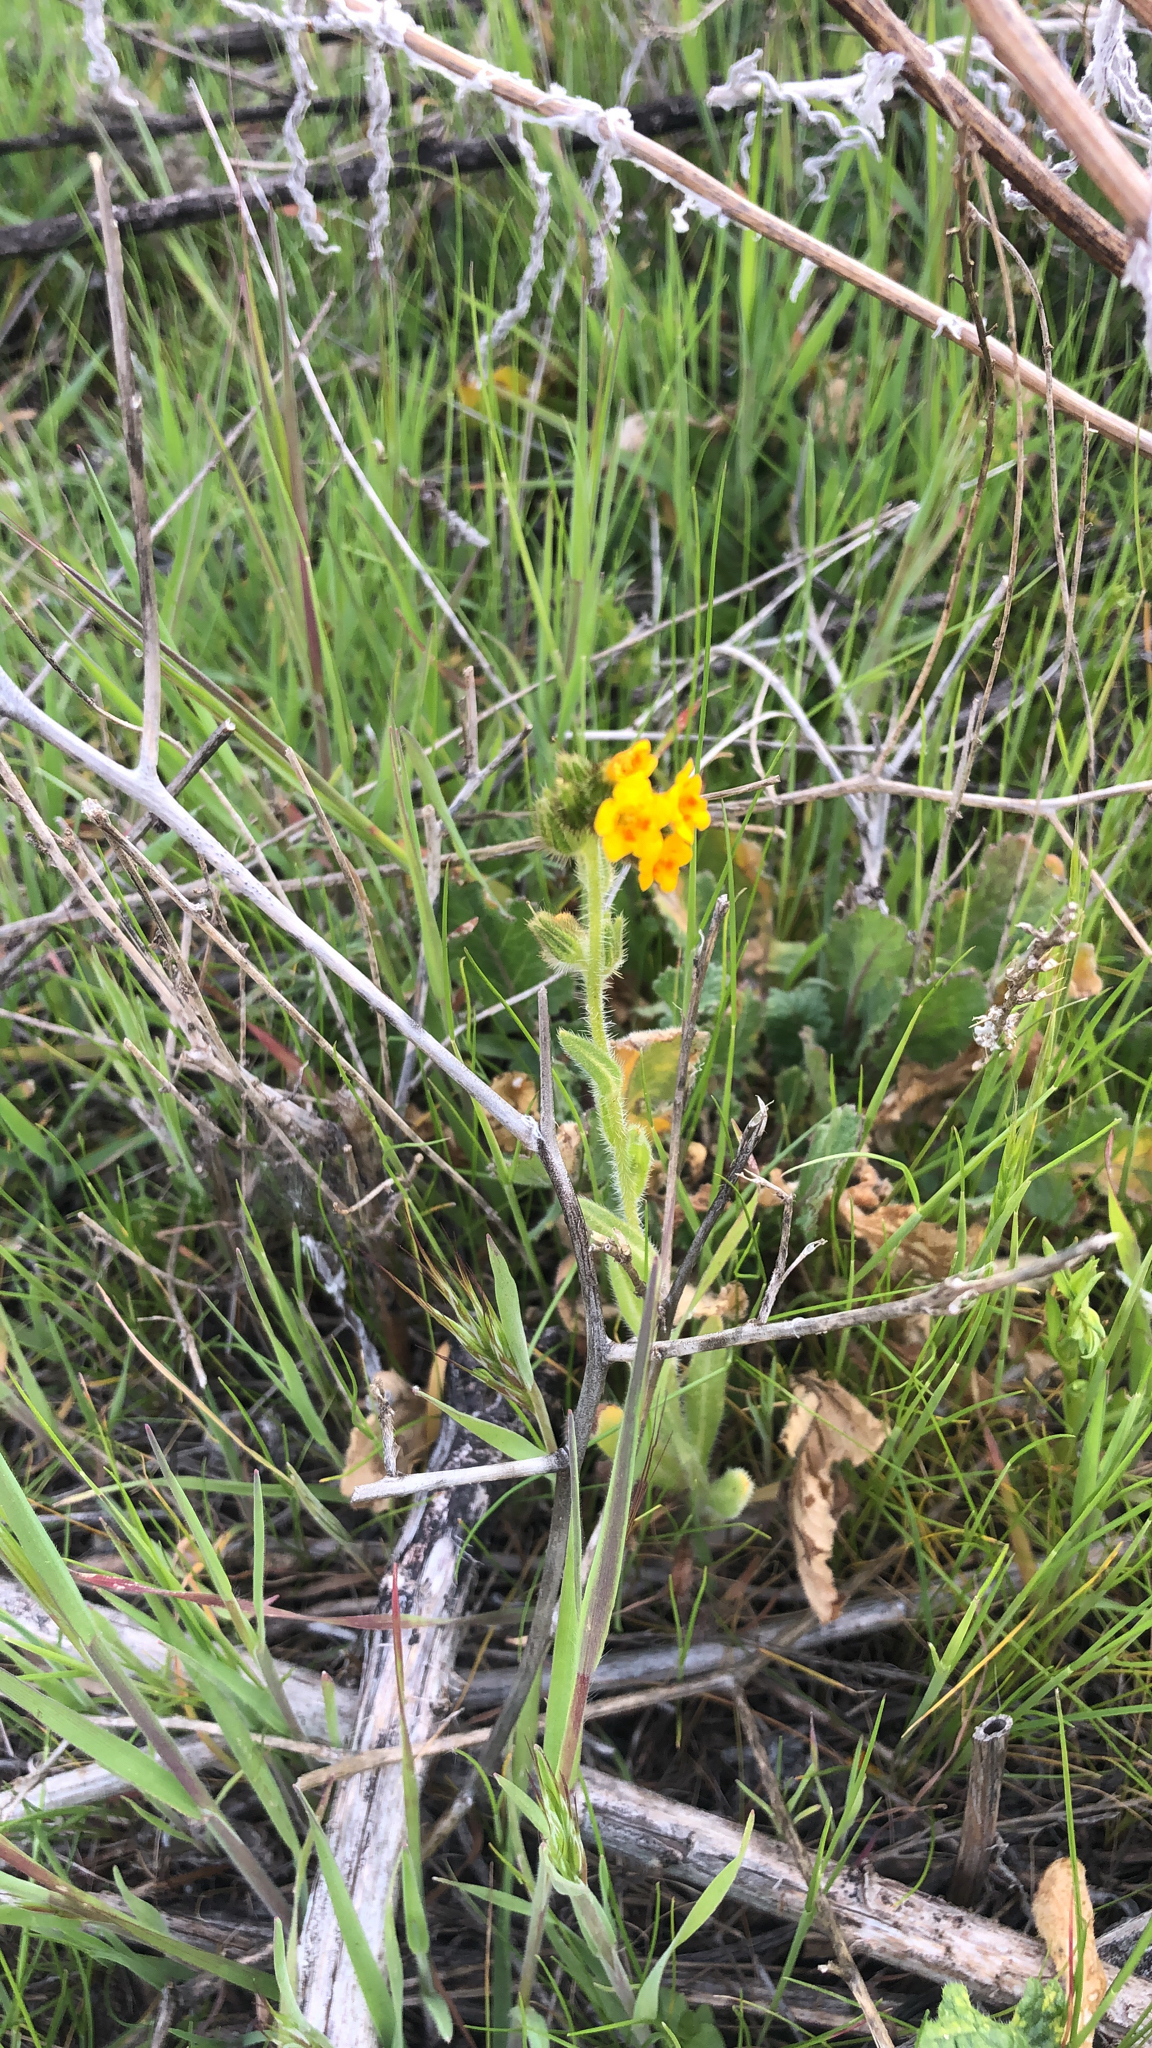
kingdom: Plantae
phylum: Tracheophyta
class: Magnoliopsida
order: Boraginales
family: Boraginaceae
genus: Amsinckia
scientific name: Amsinckia menziesii
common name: Menzies' fiddleneck
